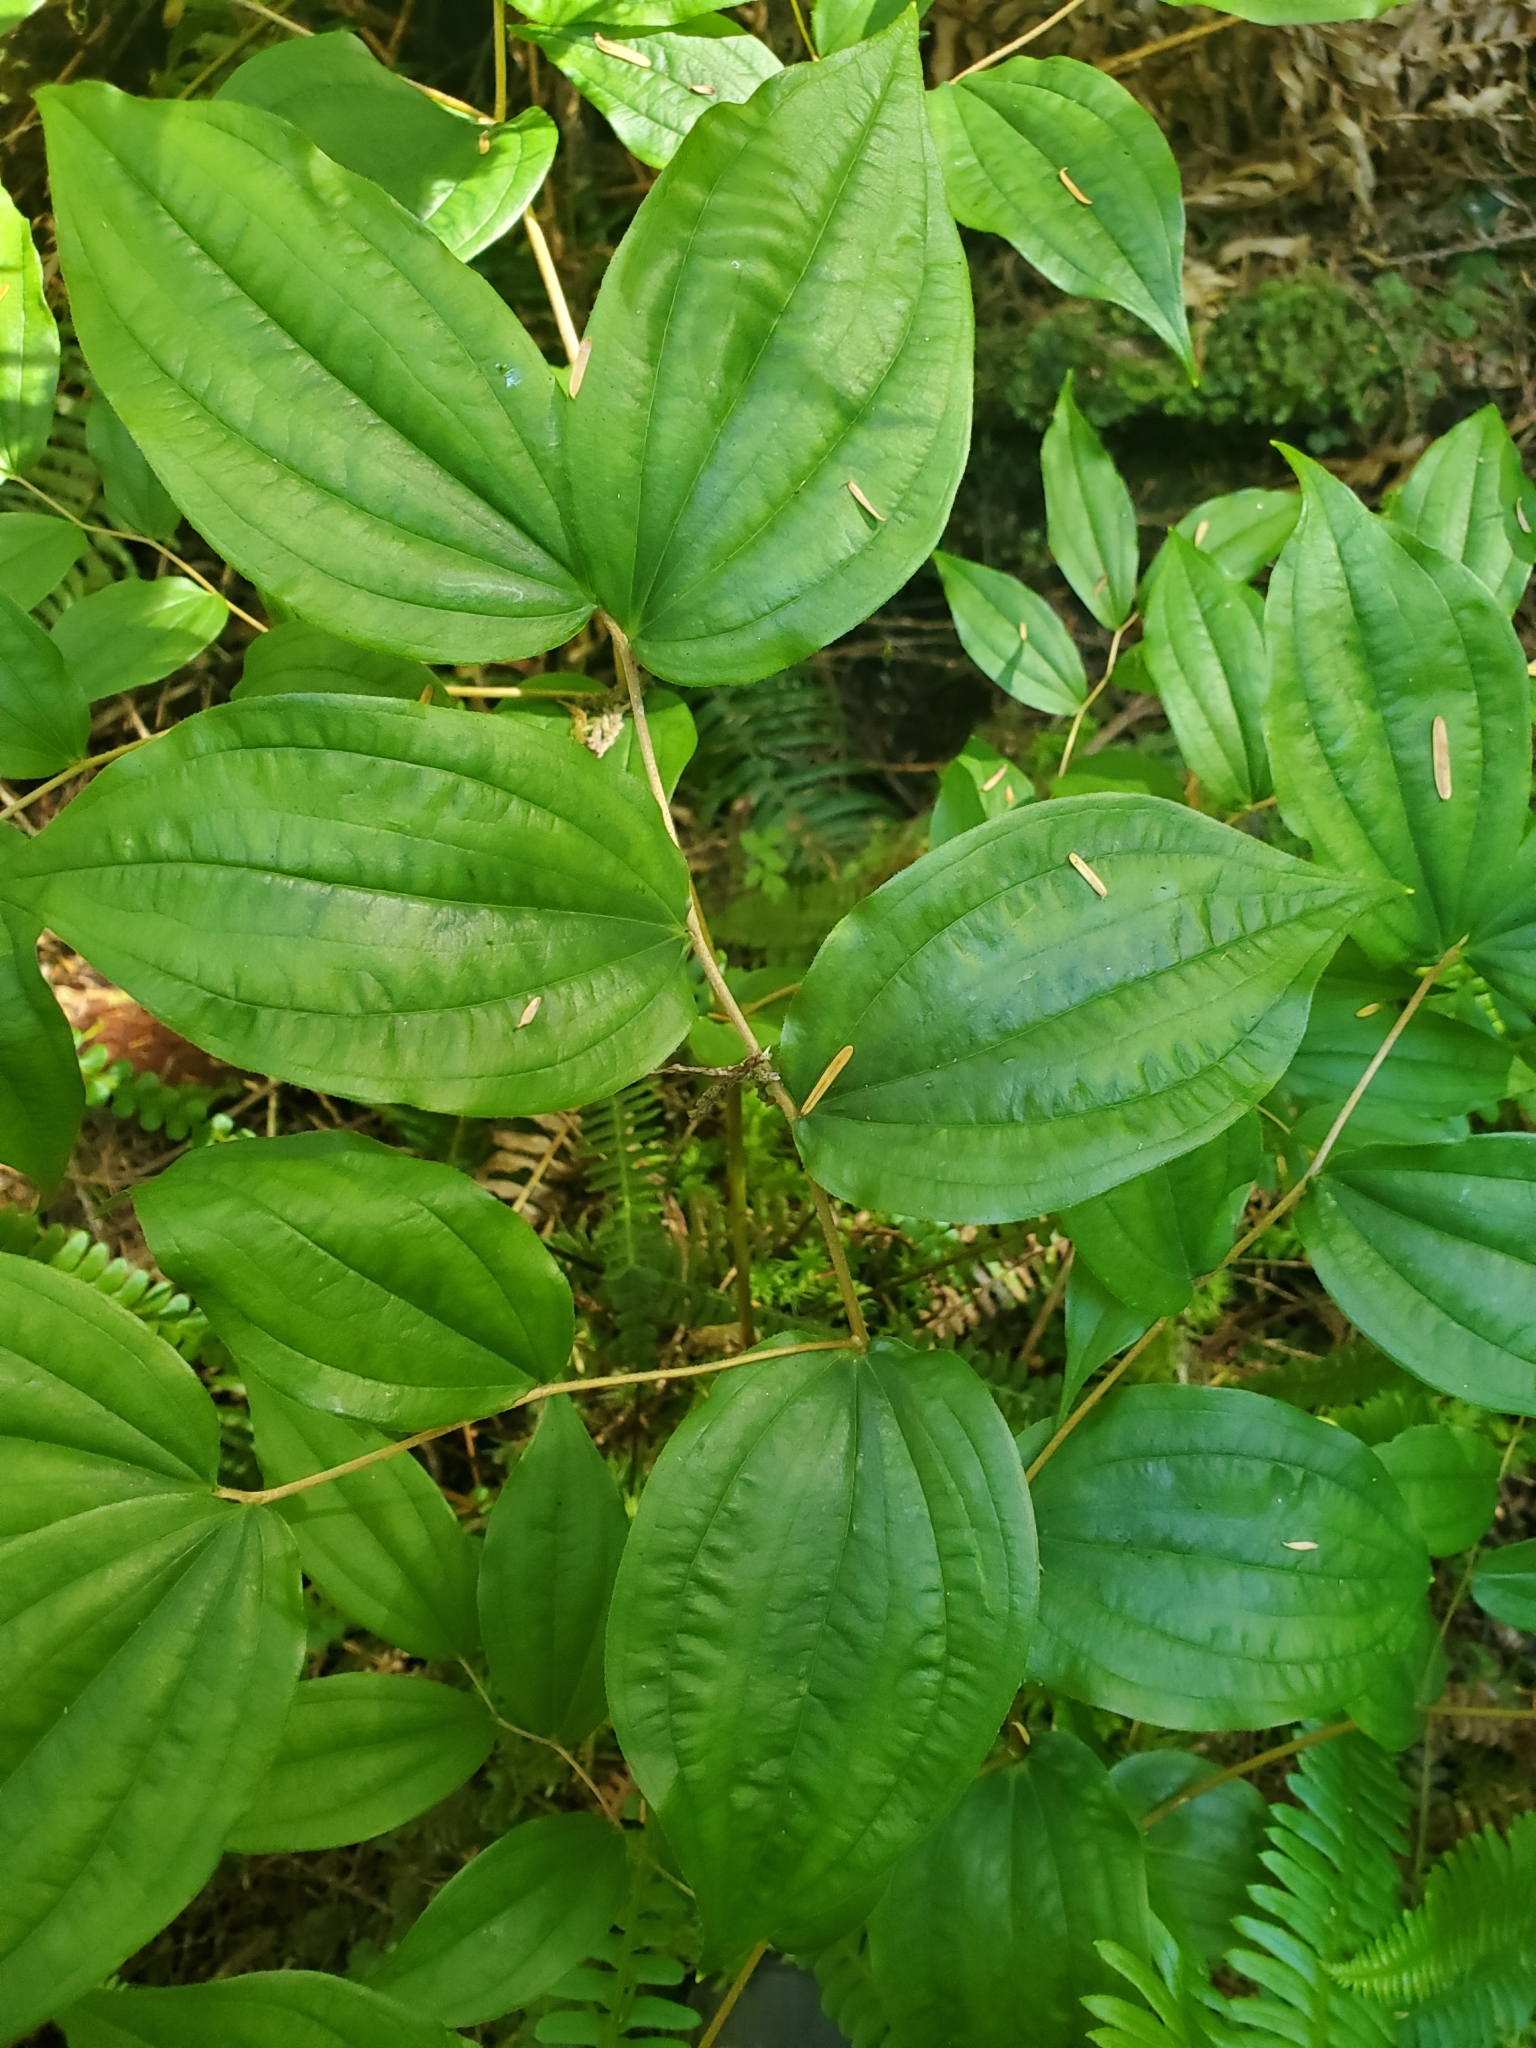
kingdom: Plantae
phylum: Tracheophyta
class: Liliopsida
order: Liliales
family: Liliaceae
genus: Prosartes
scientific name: Prosartes smithii
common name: Fairy-lantern
